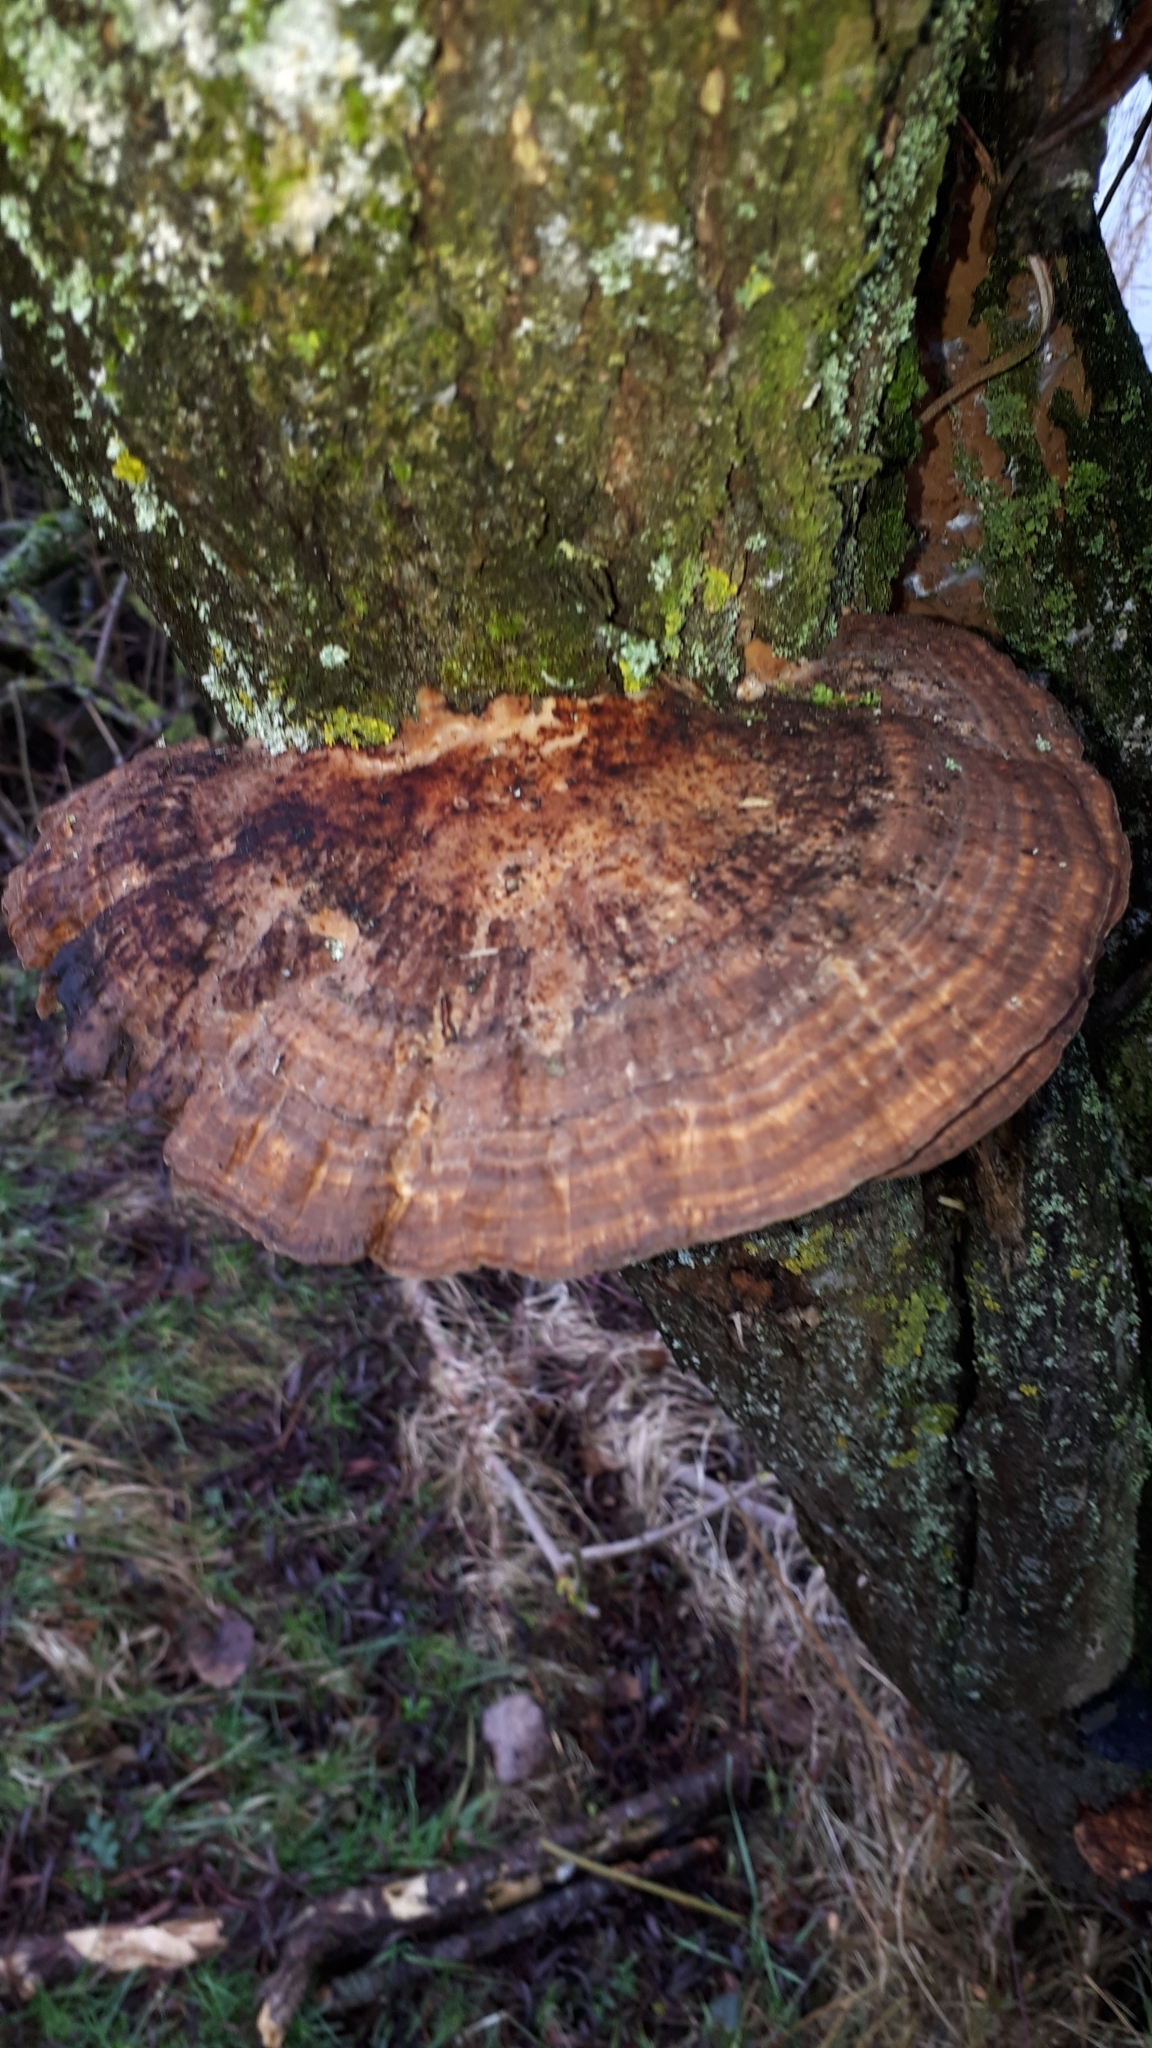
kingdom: Fungi
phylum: Basidiomycota
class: Agaricomycetes
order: Polyporales
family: Polyporaceae
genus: Daedaleopsis
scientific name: Daedaleopsis confragosa
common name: Blushing bracket
